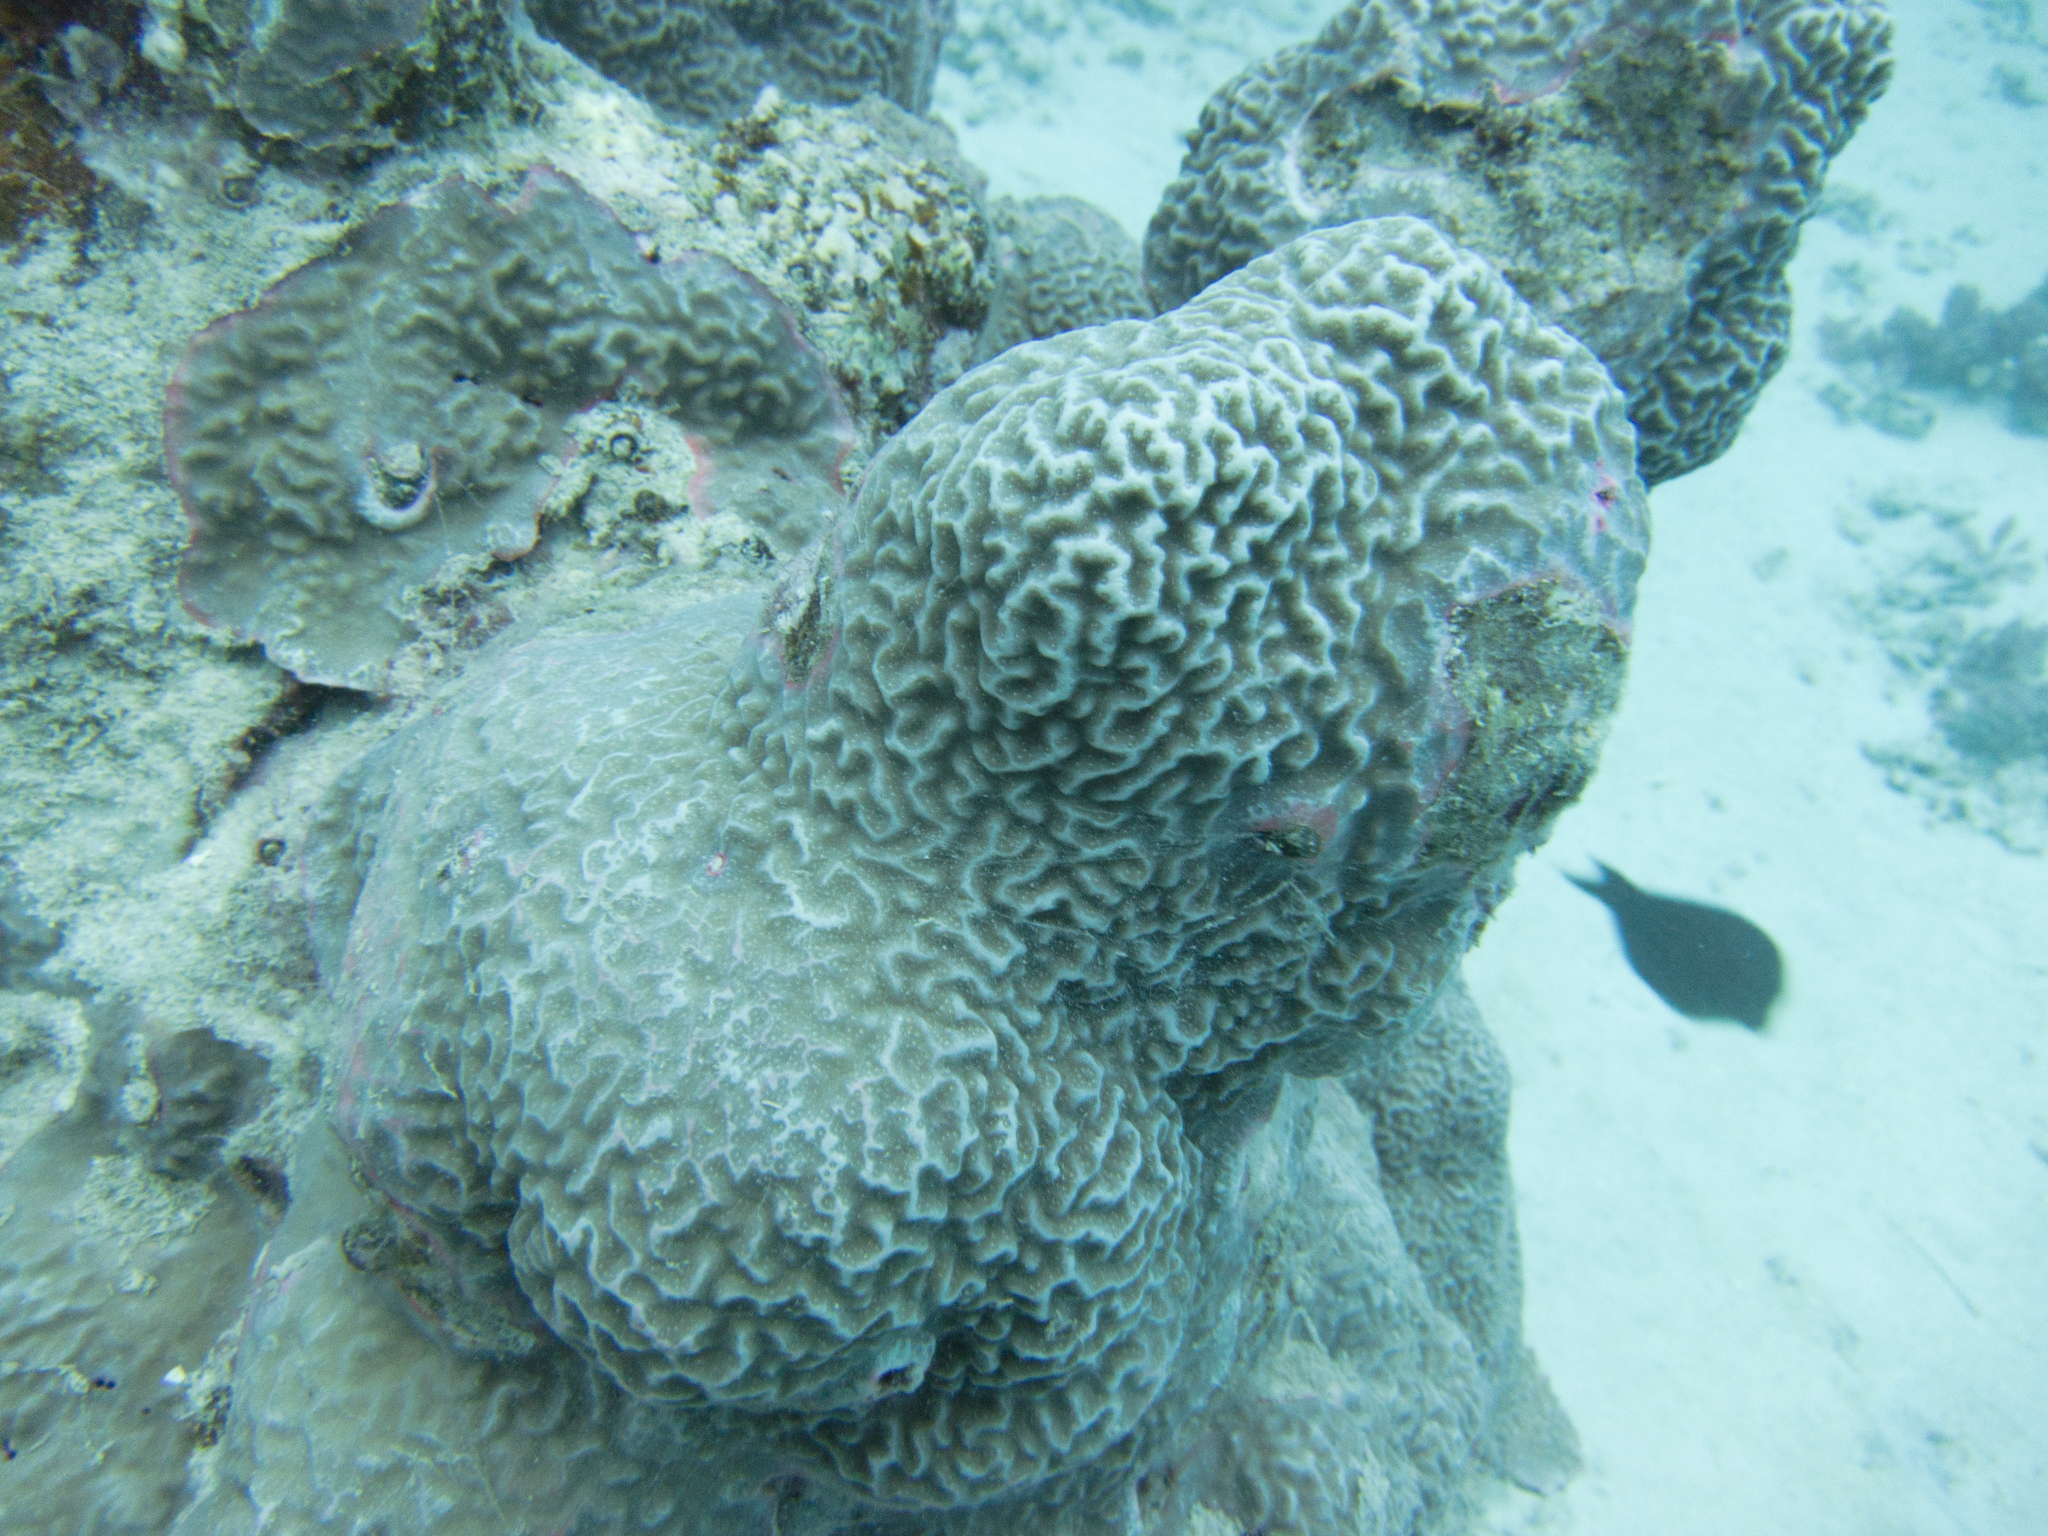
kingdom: Animalia
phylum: Cnidaria
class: Anthozoa
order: Scleractinia
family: Poritidae
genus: Porites
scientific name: Porites rus
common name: Hump coral
